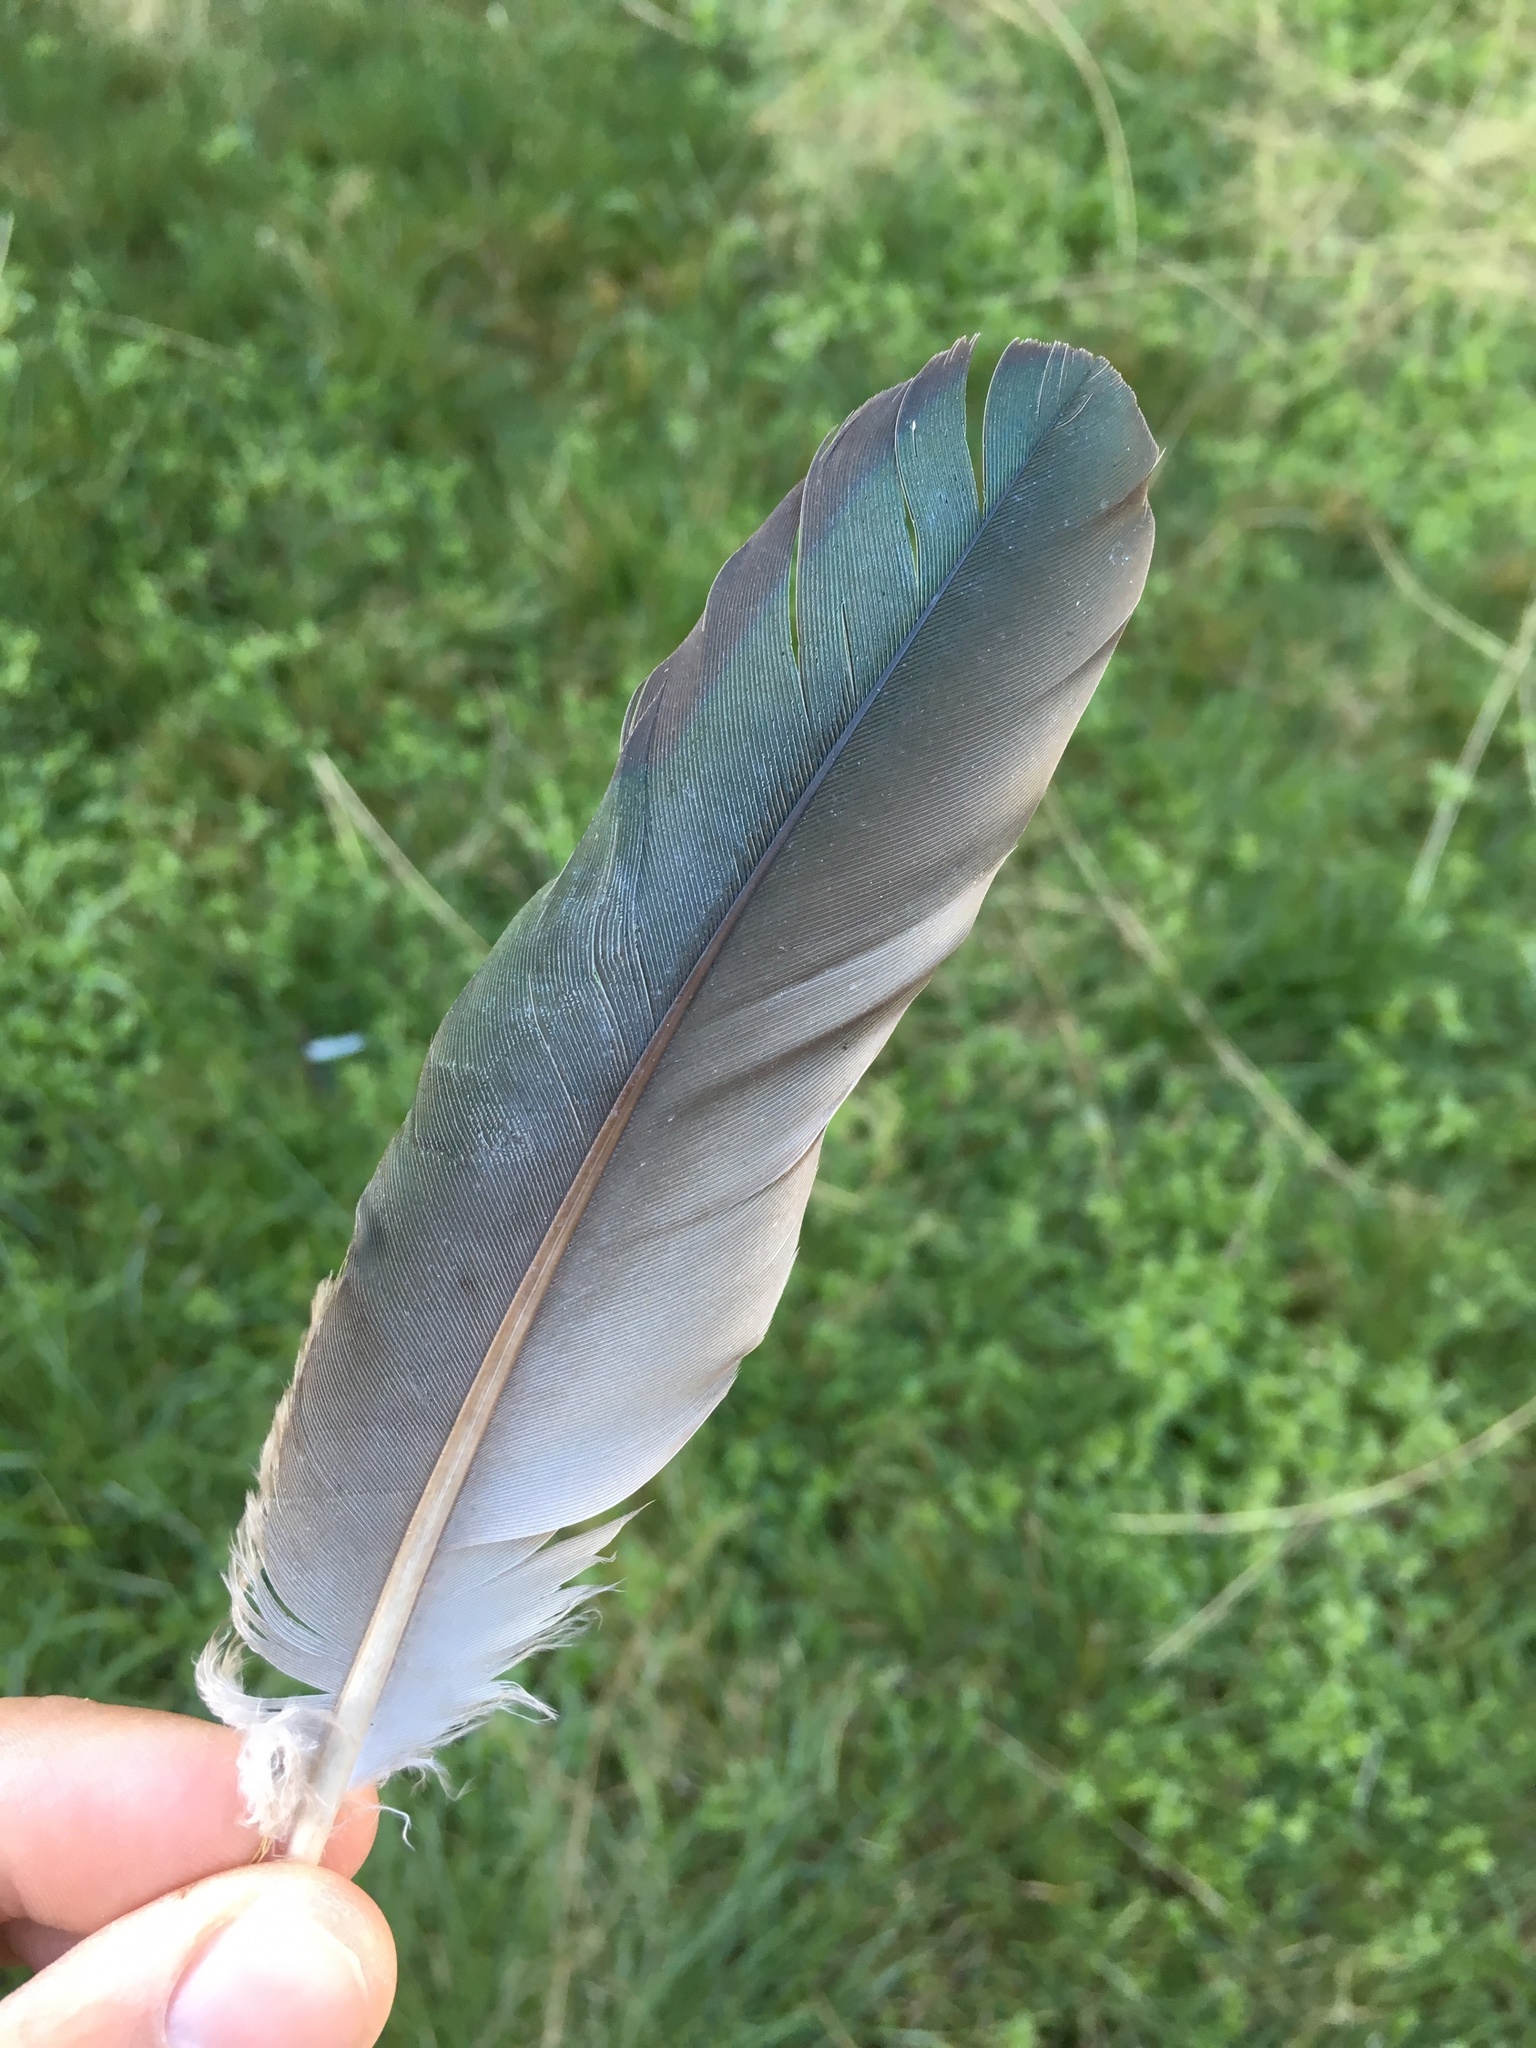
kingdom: Animalia
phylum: Chordata
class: Aves
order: Columbiformes
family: Columbidae
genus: Hemiphaga
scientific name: Hemiphaga novaeseelandiae
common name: New zealand pigeon
